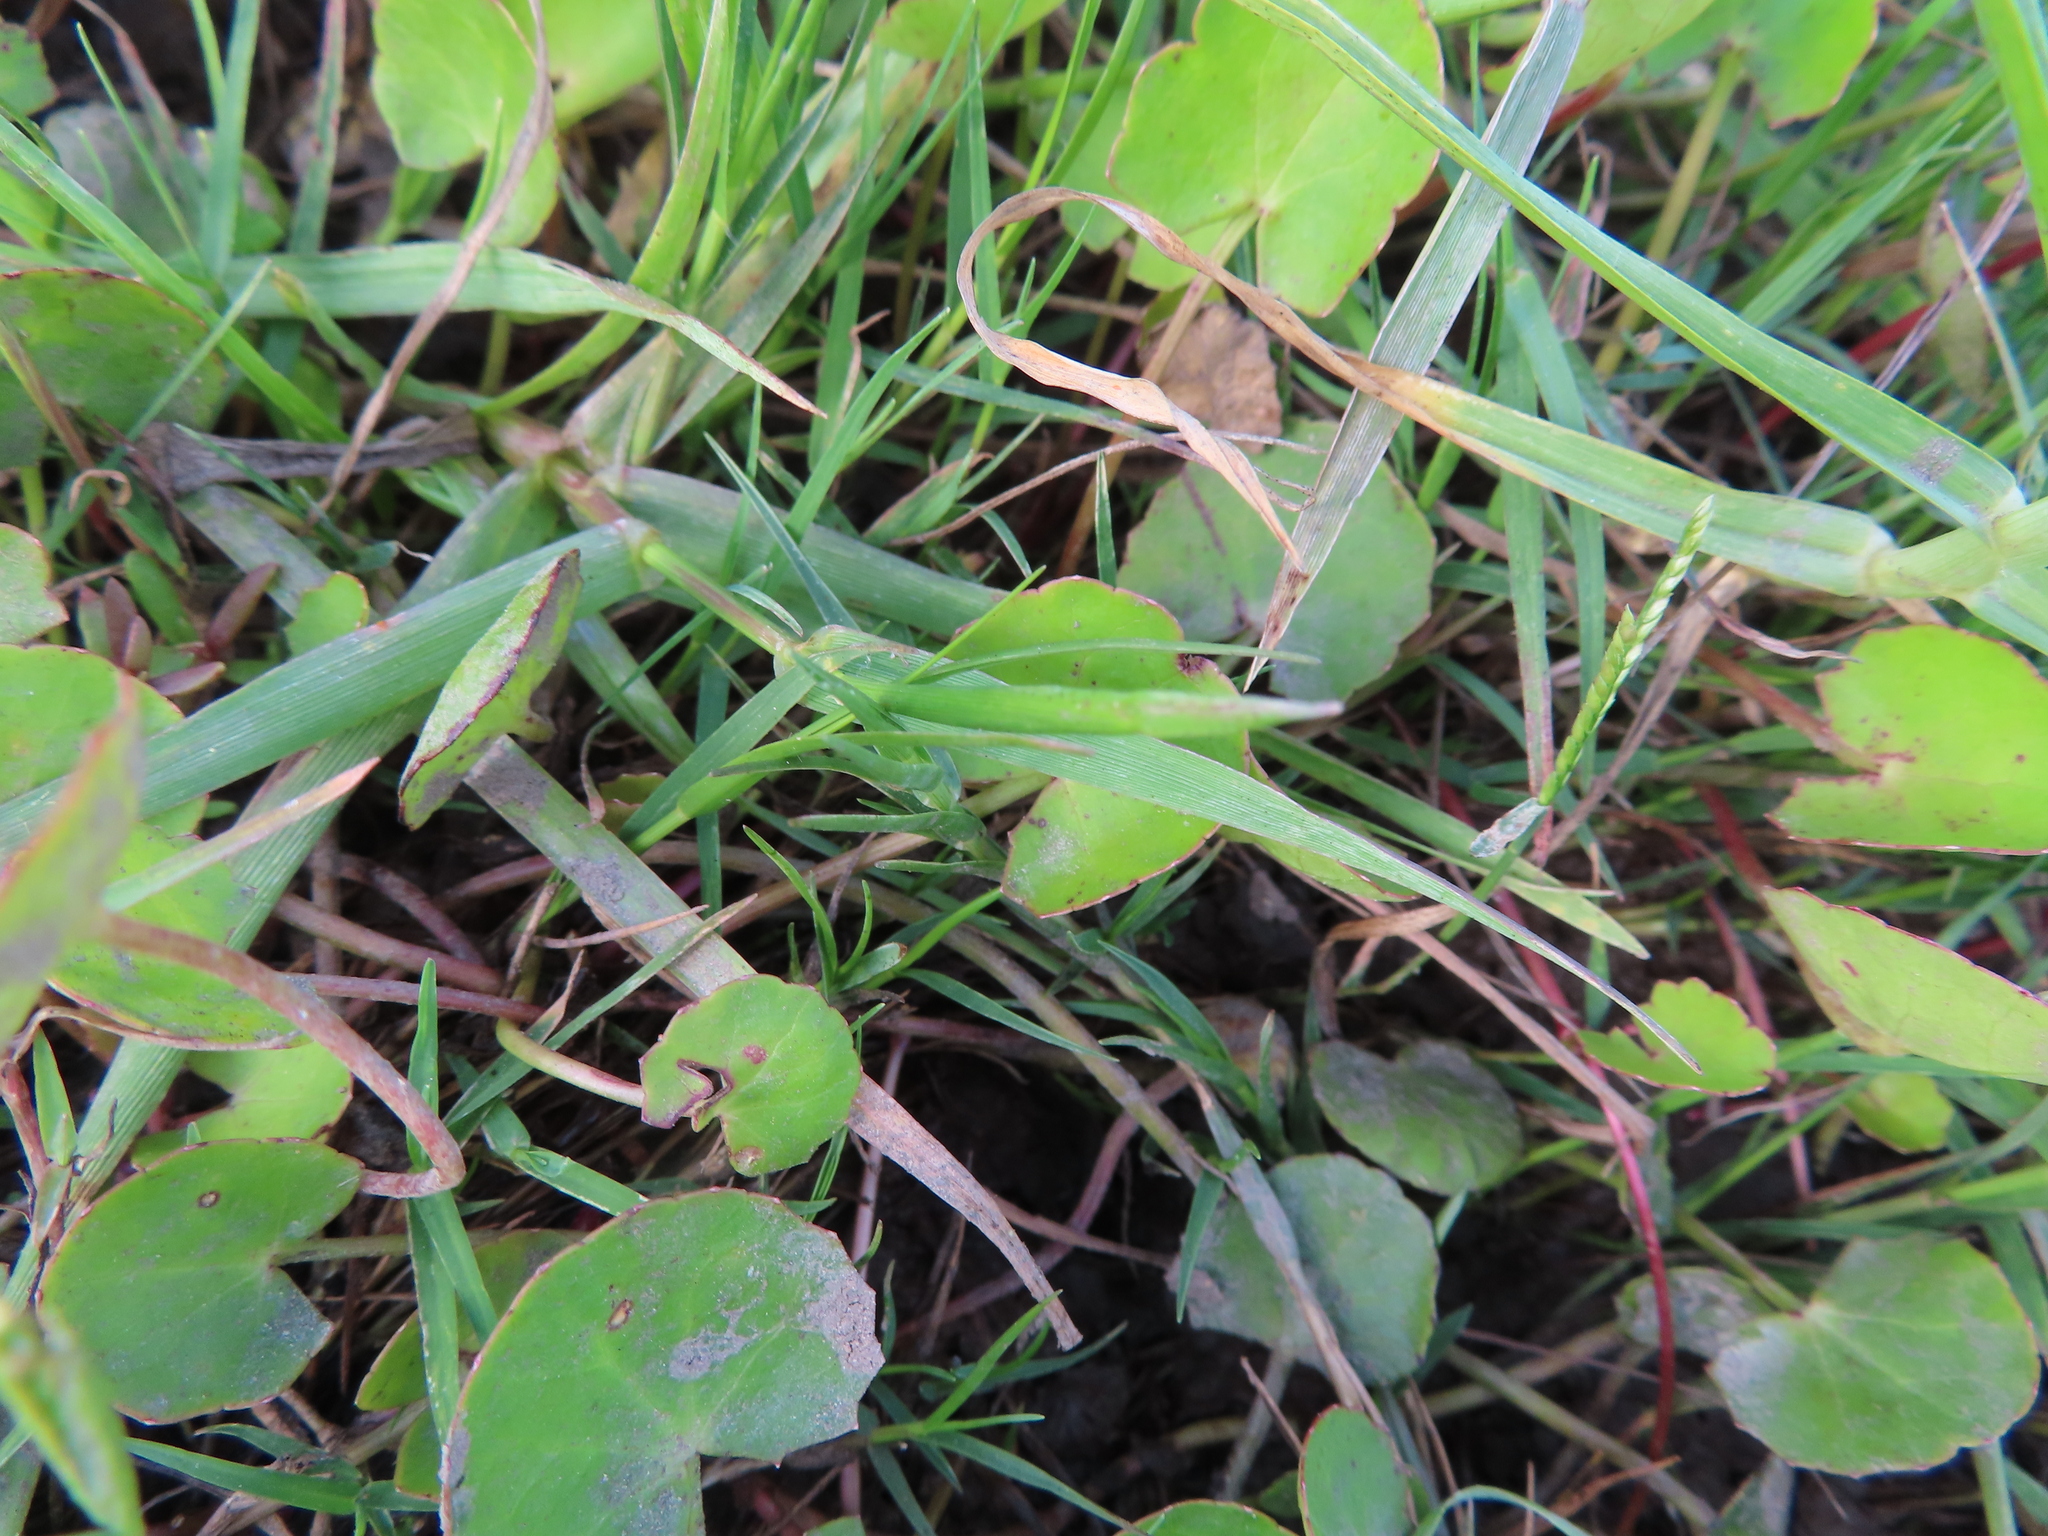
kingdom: Plantae
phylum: Tracheophyta
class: Magnoliopsida
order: Apiales
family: Apiaceae
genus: Centella
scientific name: Centella asiatica
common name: Spadeleaf
